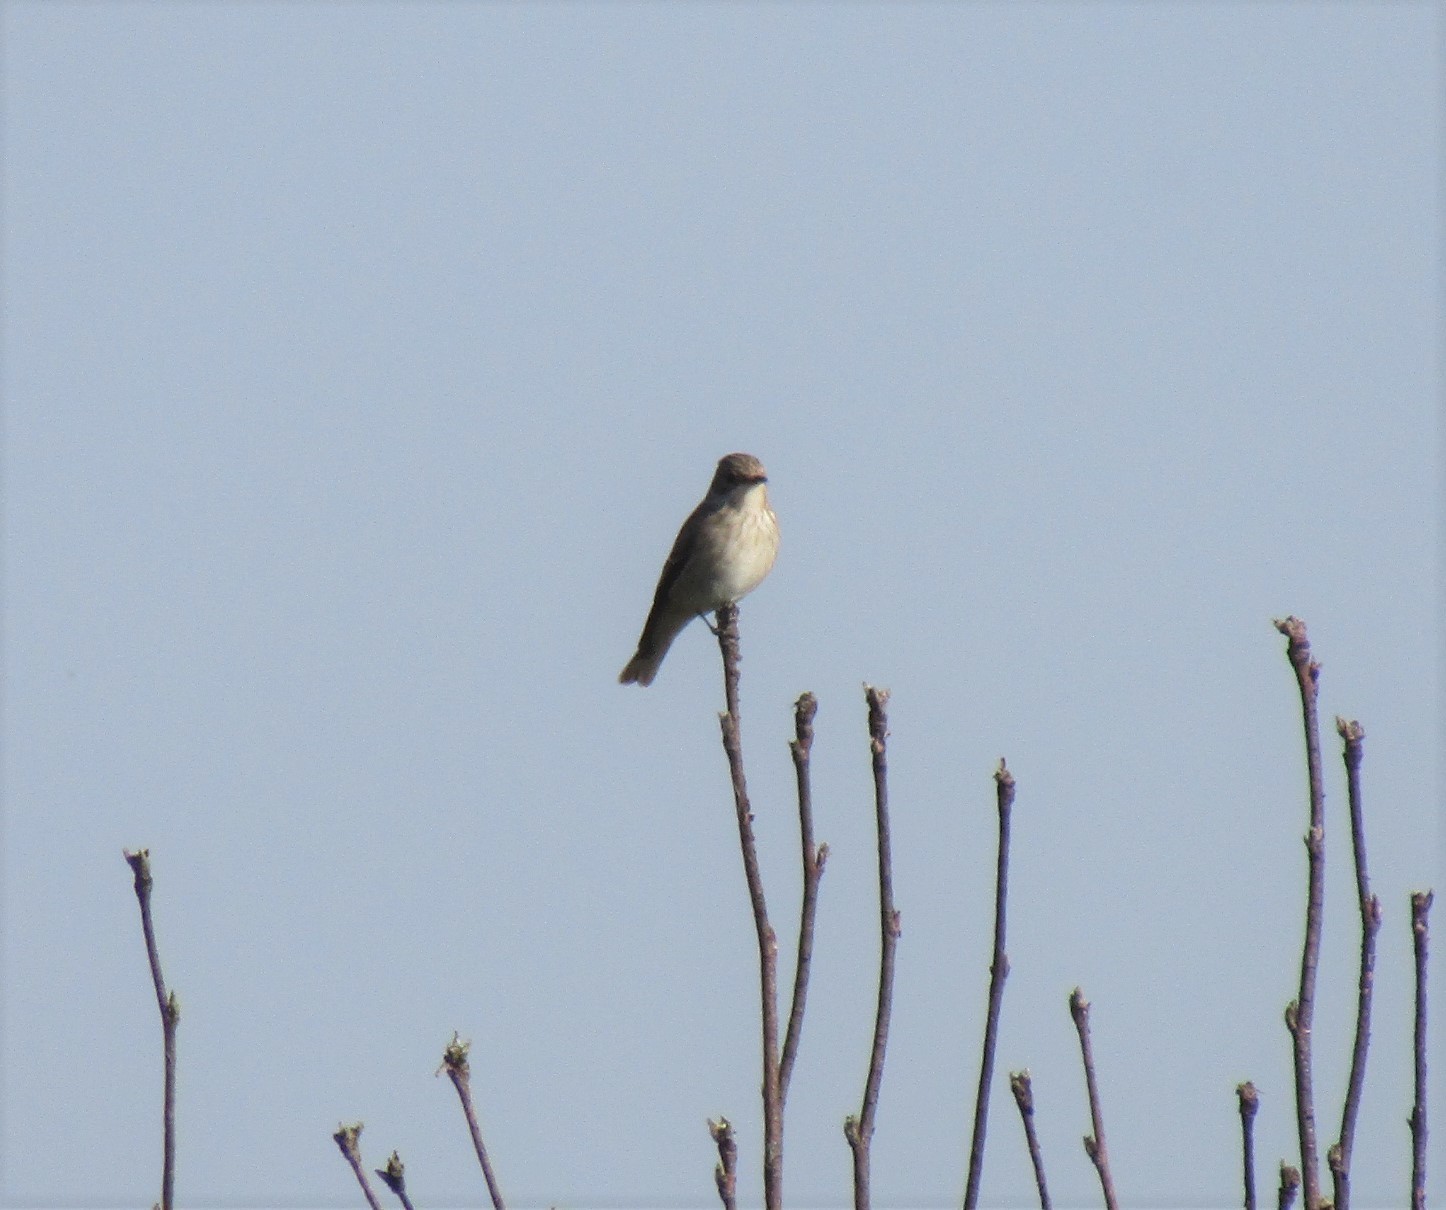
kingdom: Animalia
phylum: Chordata
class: Aves
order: Passeriformes
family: Muscicapidae
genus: Muscicapa
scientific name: Muscicapa striata
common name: Spotted flycatcher
